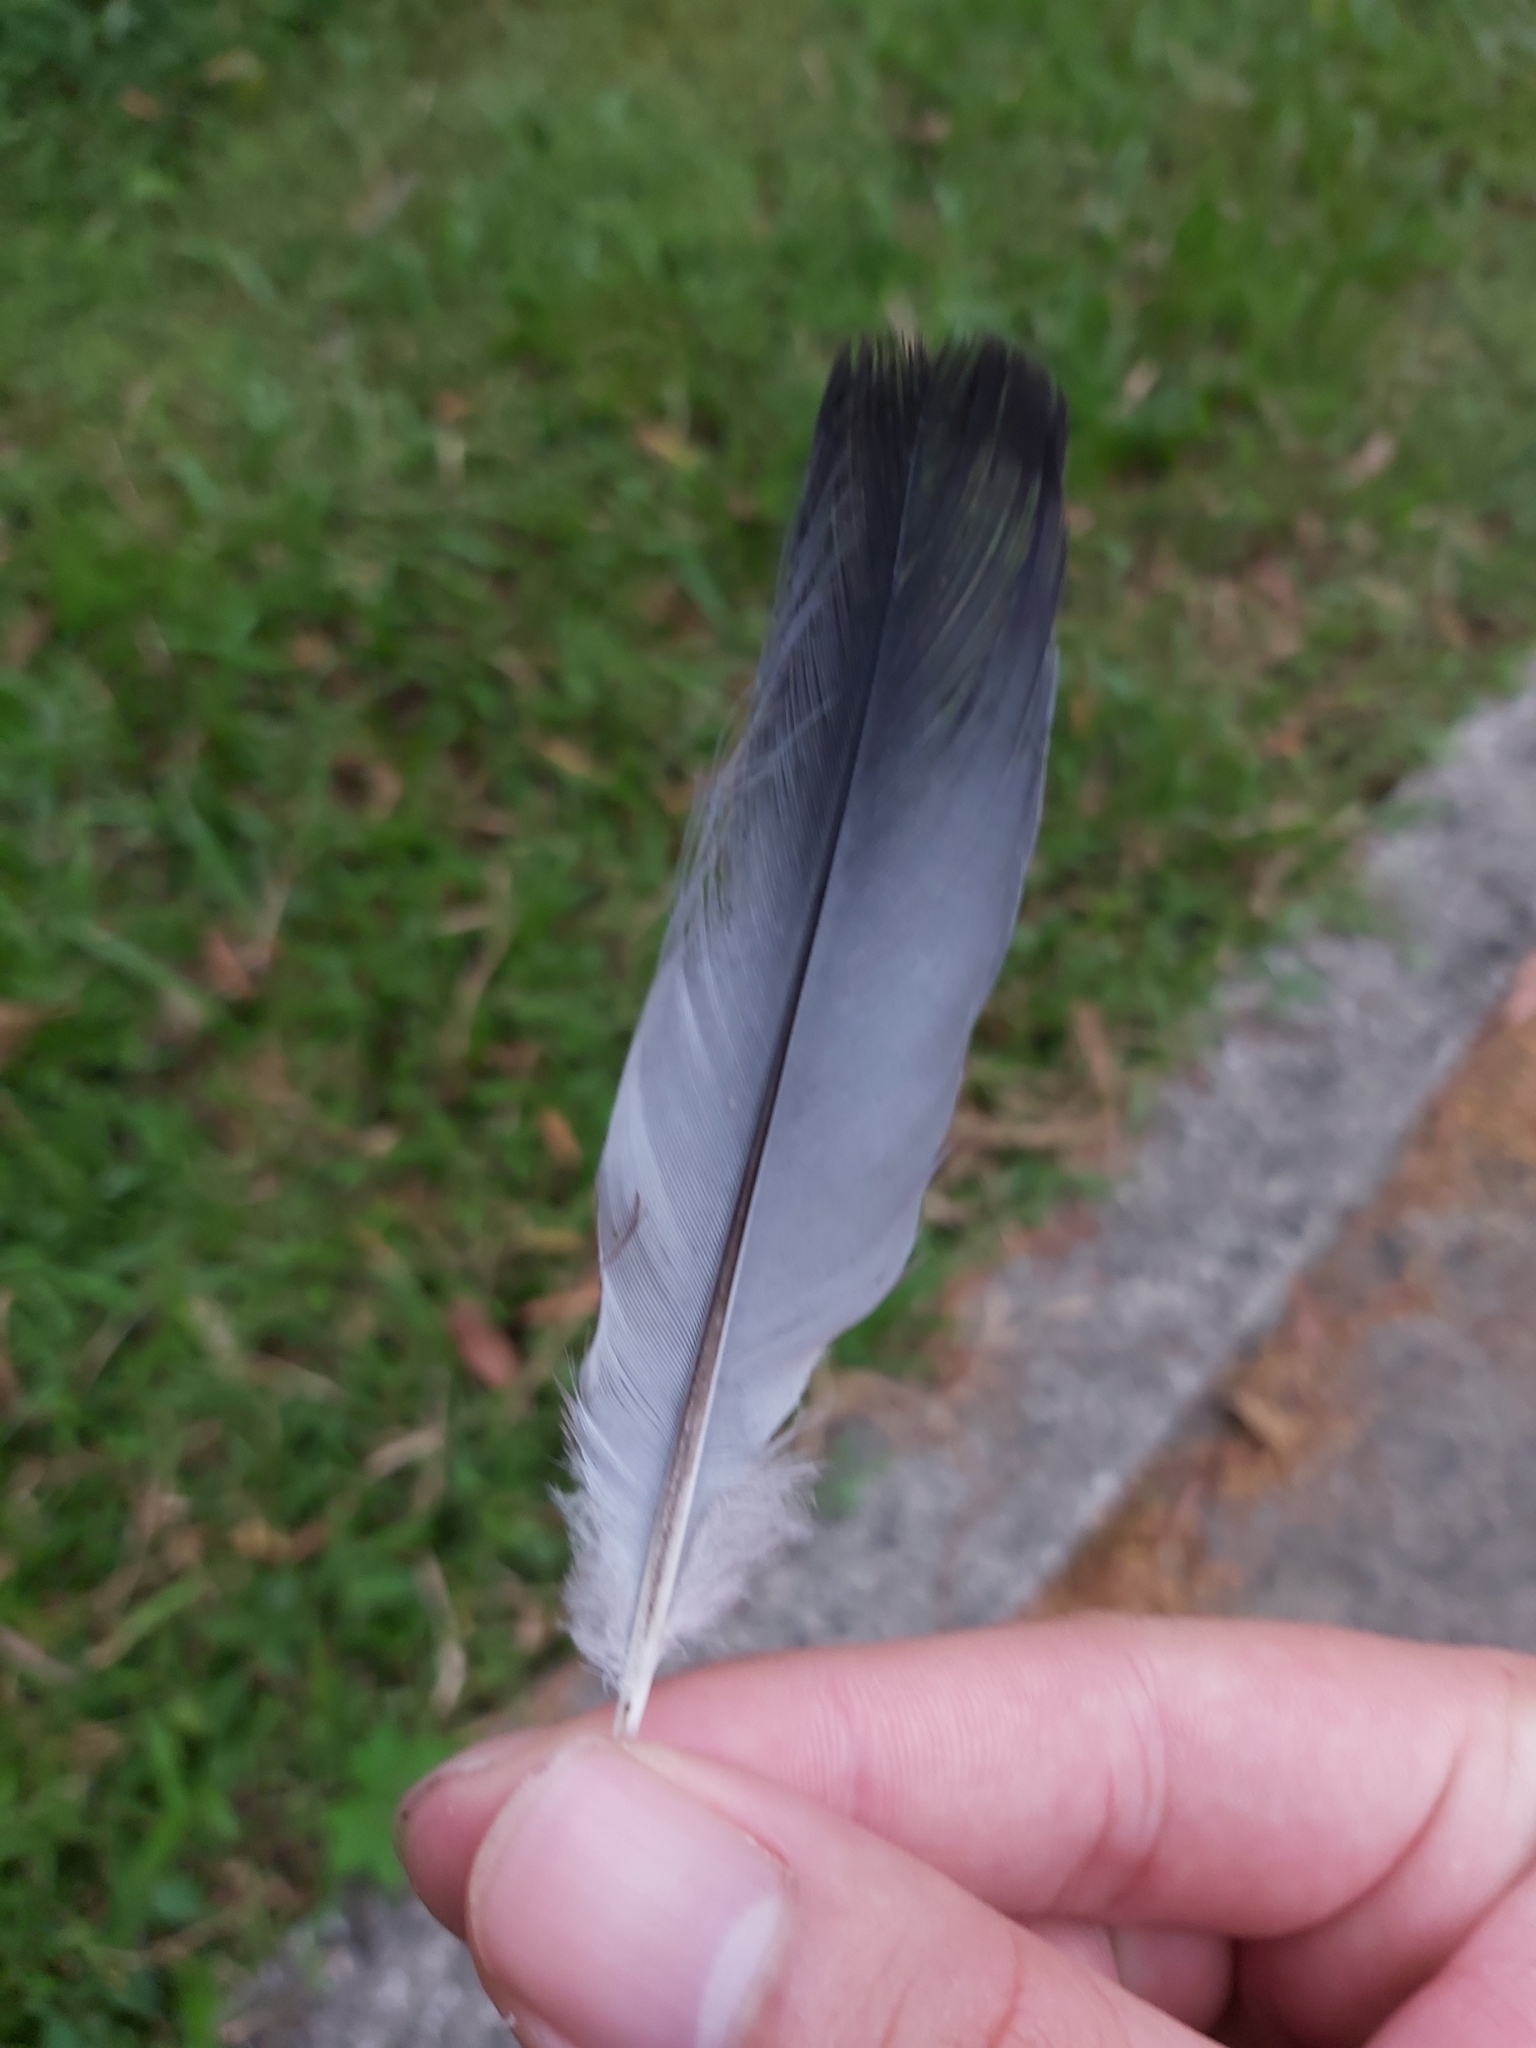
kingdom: Animalia
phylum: Chordata
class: Aves
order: Columbiformes
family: Columbidae
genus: Chalcophaps
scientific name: Chalcophaps indica
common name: Common emerald dove
